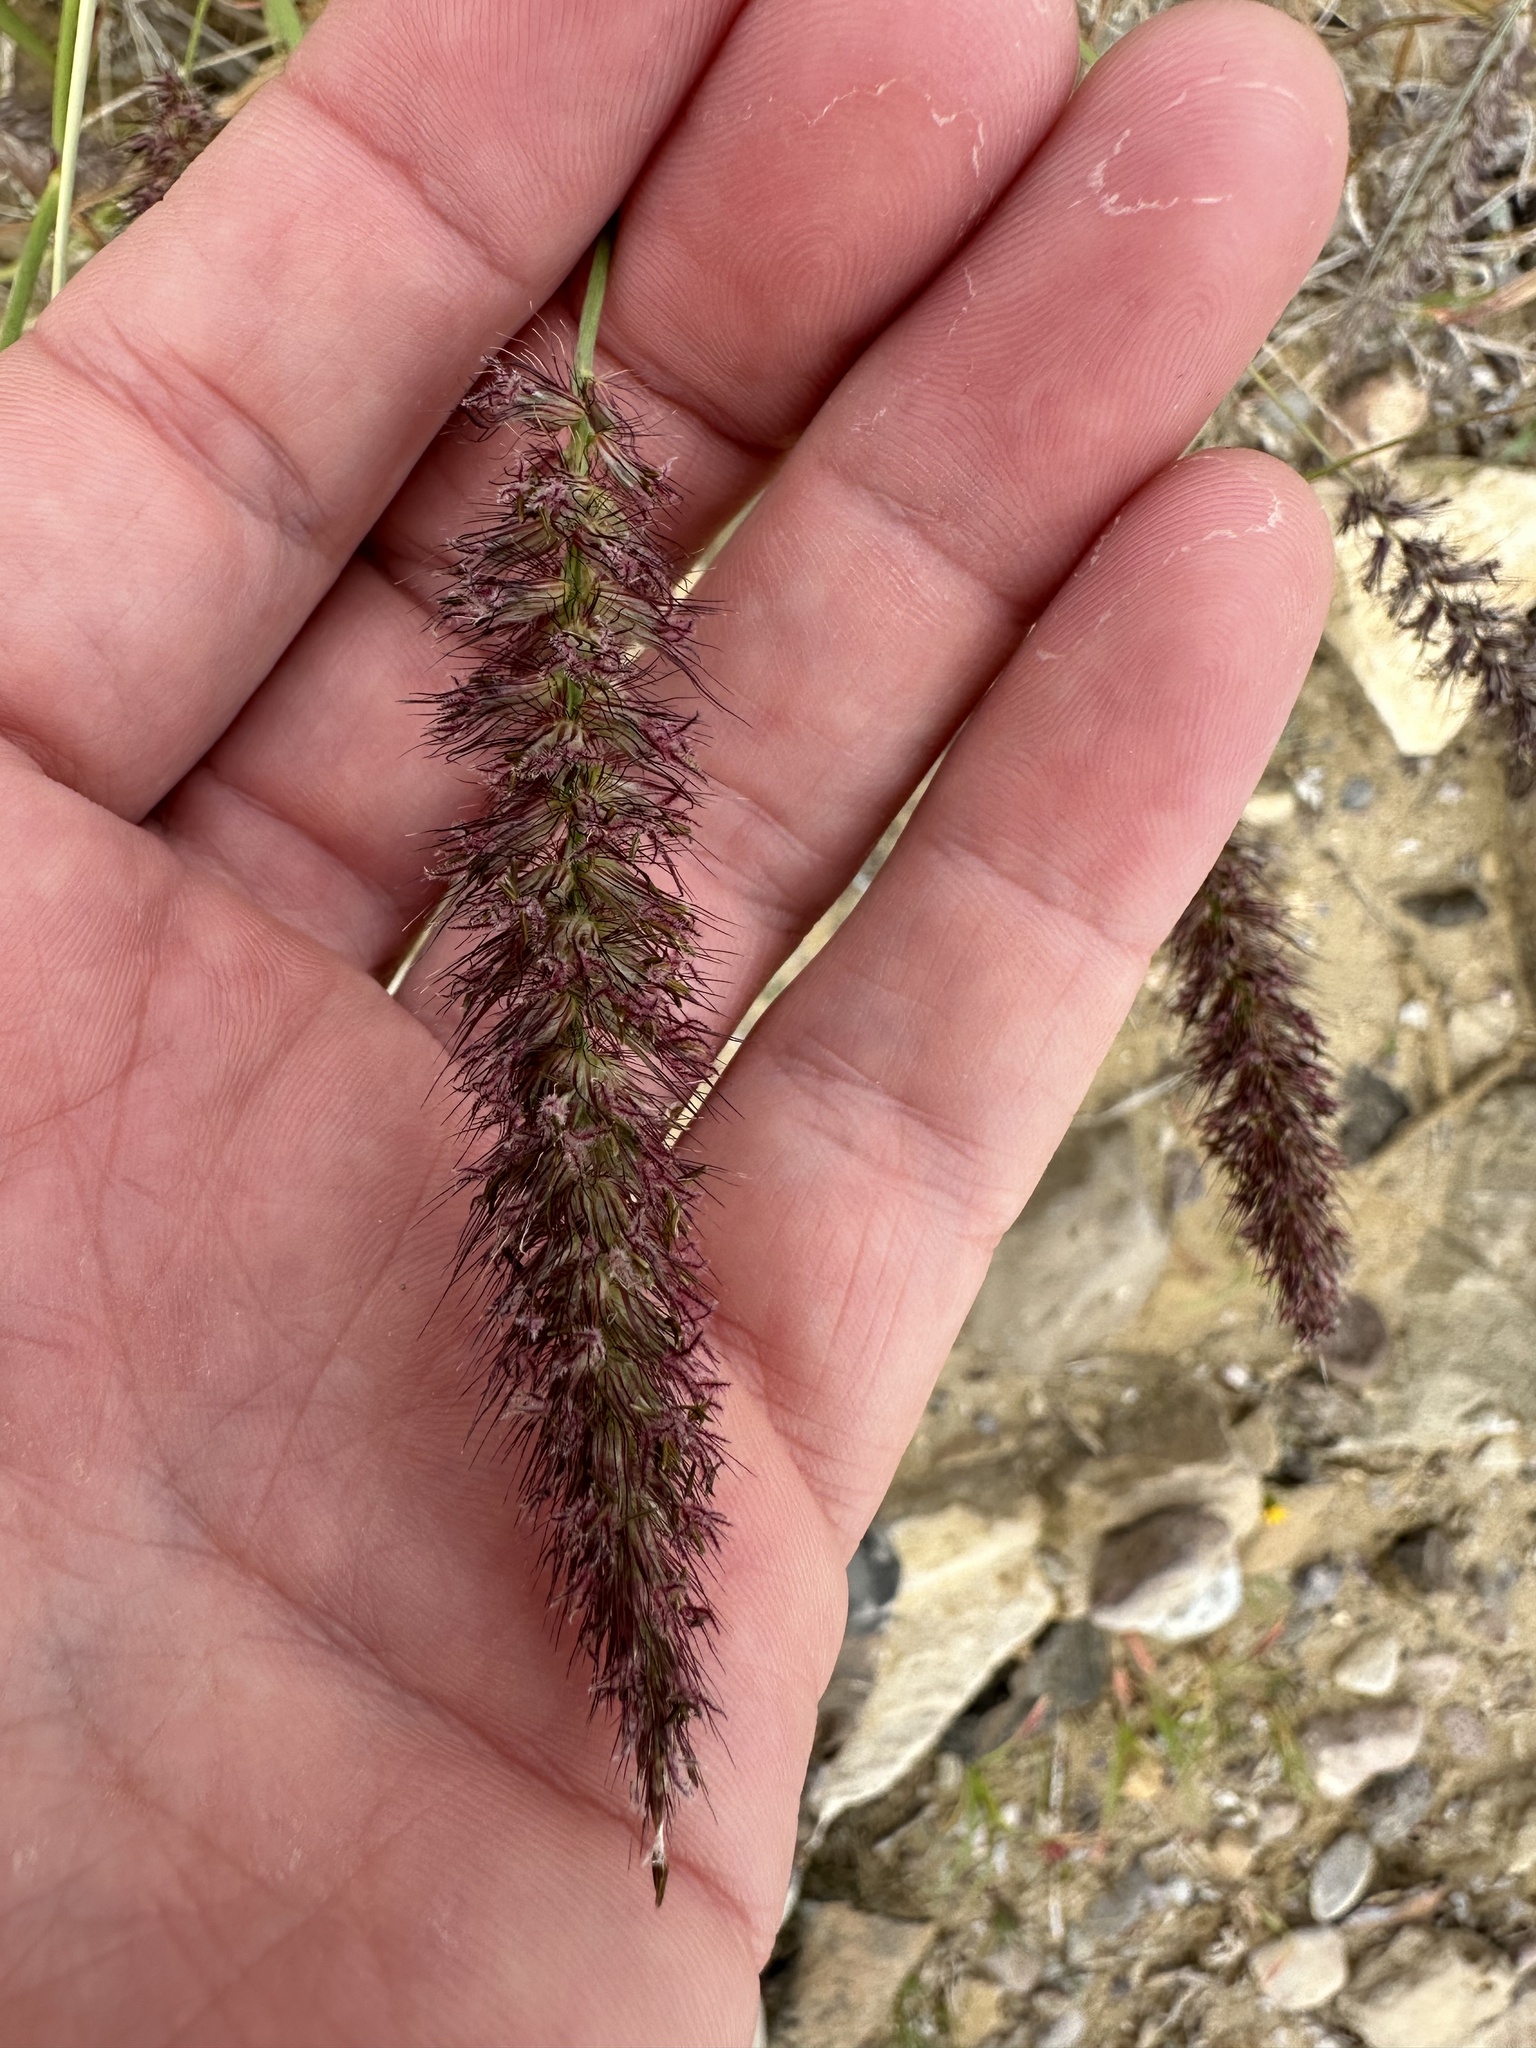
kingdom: Plantae
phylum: Tracheophyta
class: Liliopsida
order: Poales
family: Poaceae
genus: Cenchrus
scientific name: Cenchrus ciliaris
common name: Buffelgrass
